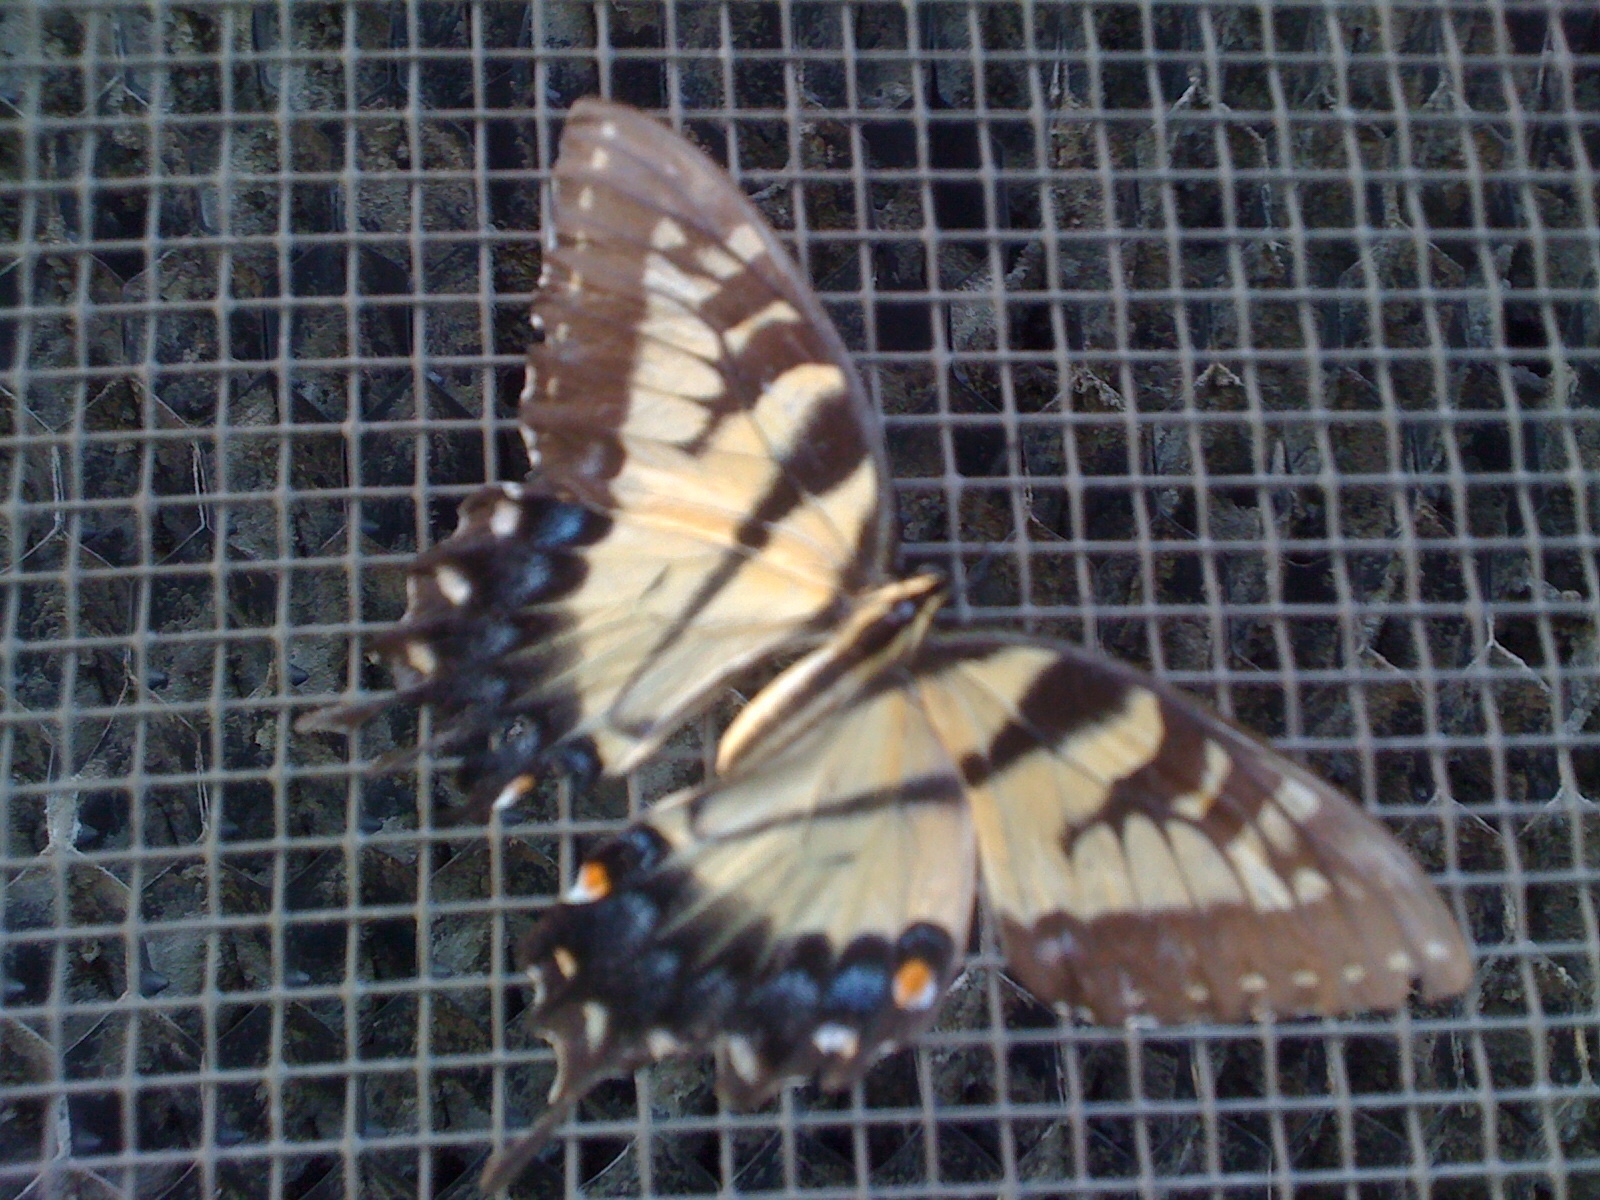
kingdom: Animalia
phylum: Arthropoda
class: Insecta
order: Lepidoptera
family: Papilionidae
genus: Papilio
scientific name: Papilio glaucus
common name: Tiger swallowtail
